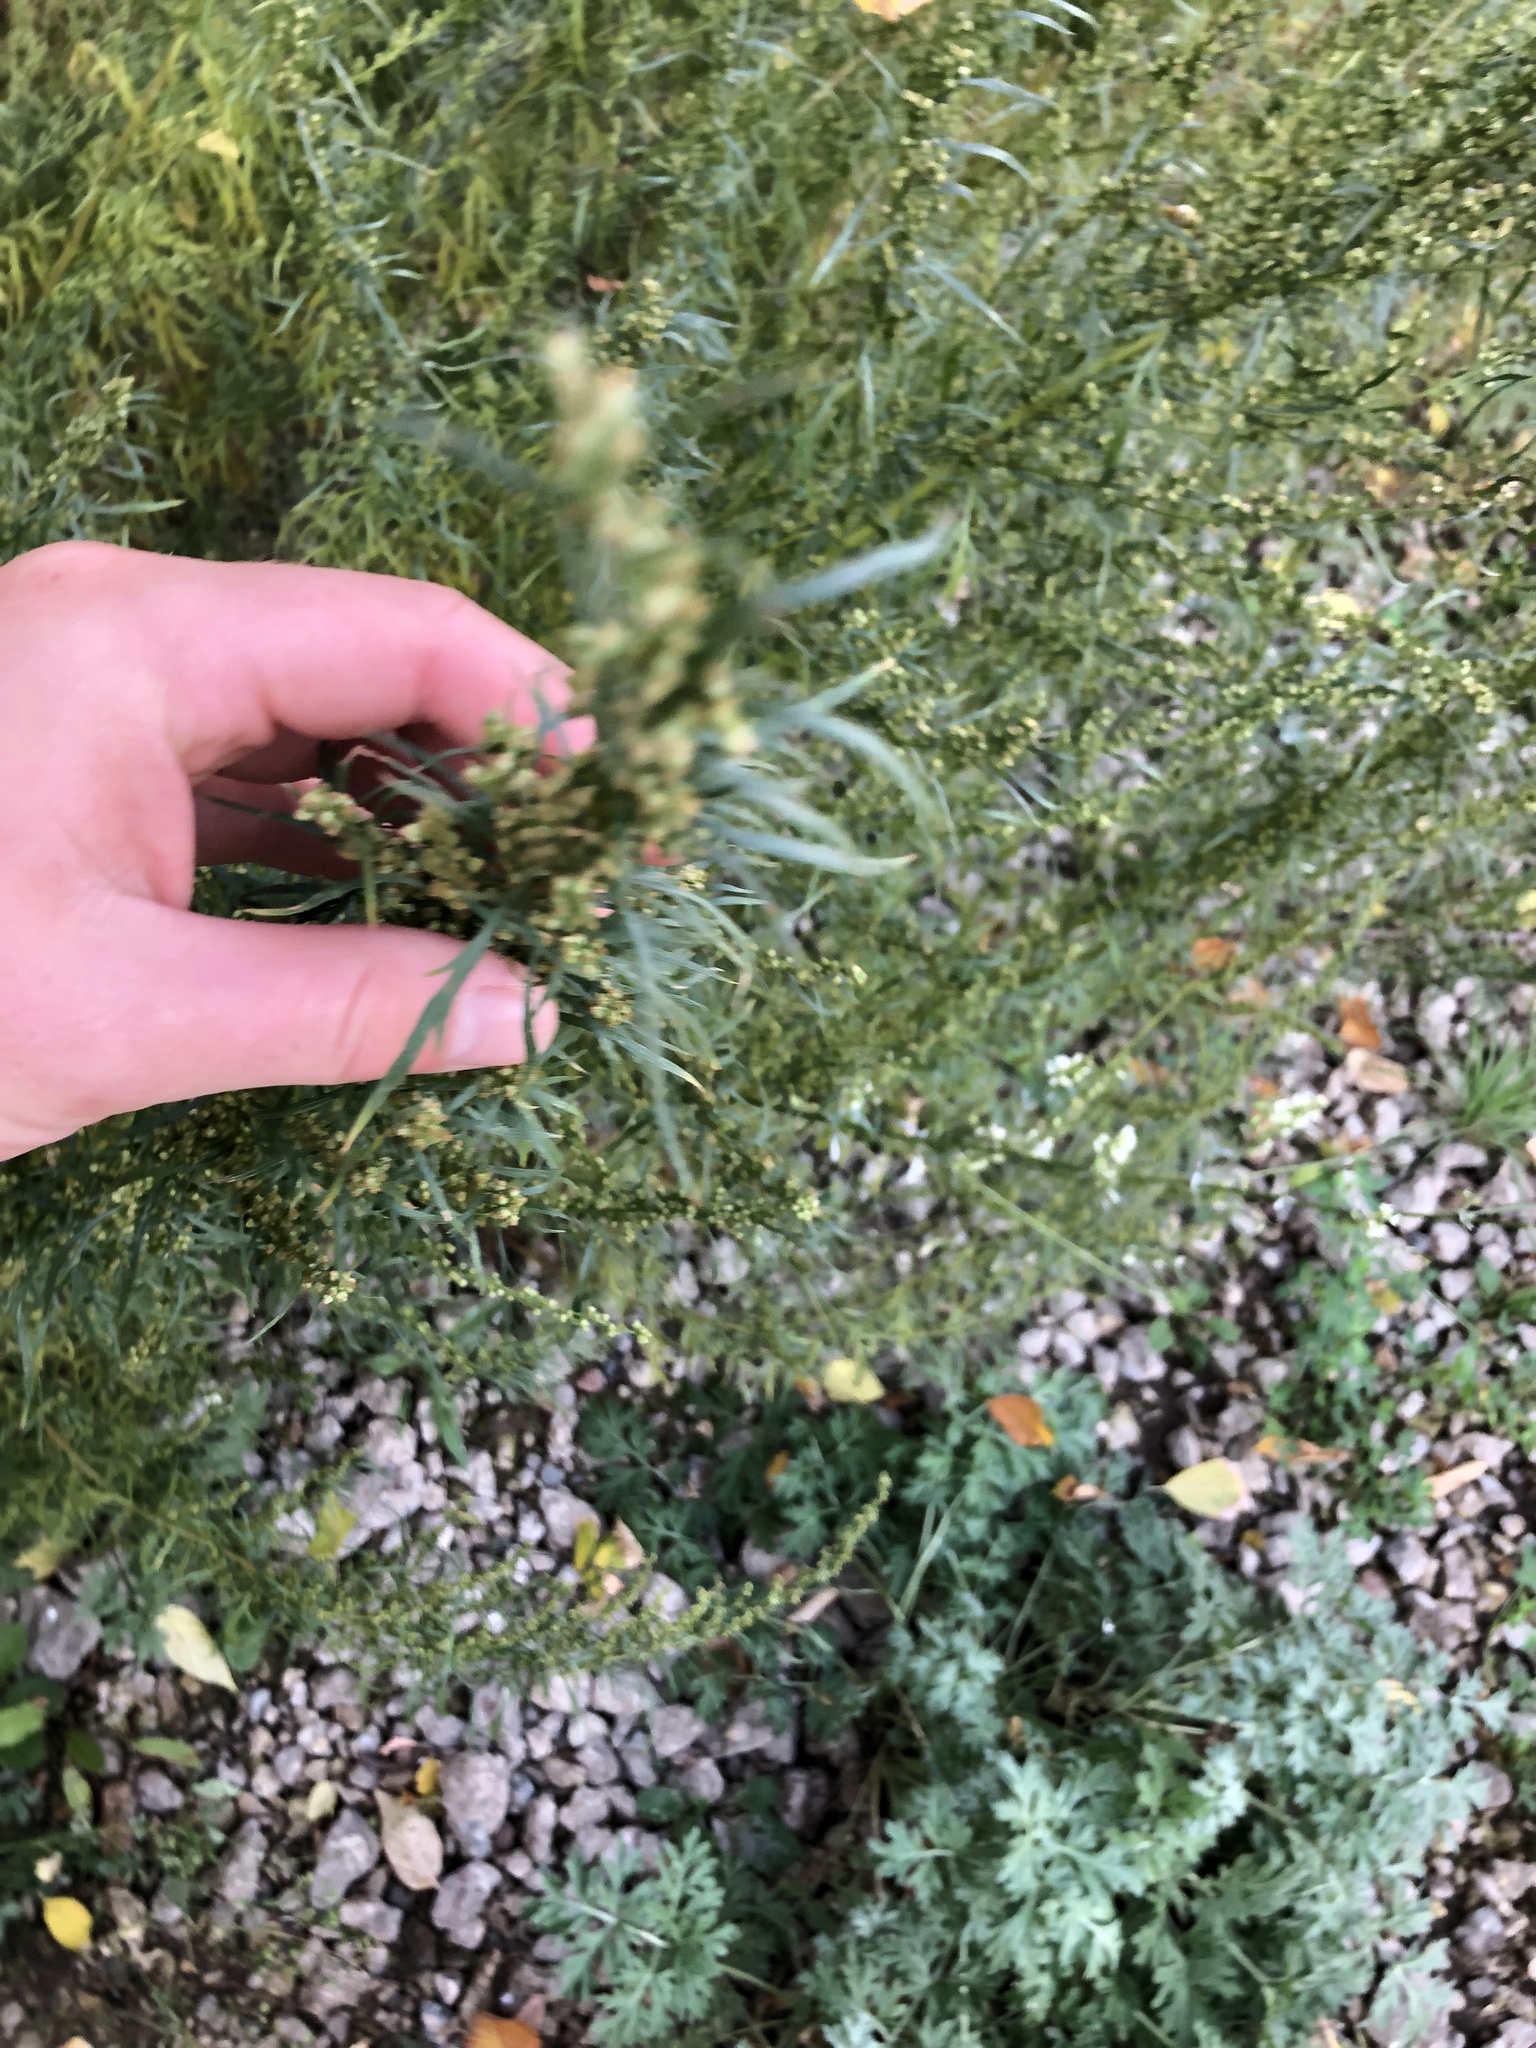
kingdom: Plantae
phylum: Tracheophyta
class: Magnoliopsida
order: Asterales
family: Asteraceae
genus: Artemisia
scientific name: Artemisia biennis
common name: Biennial wormwood
